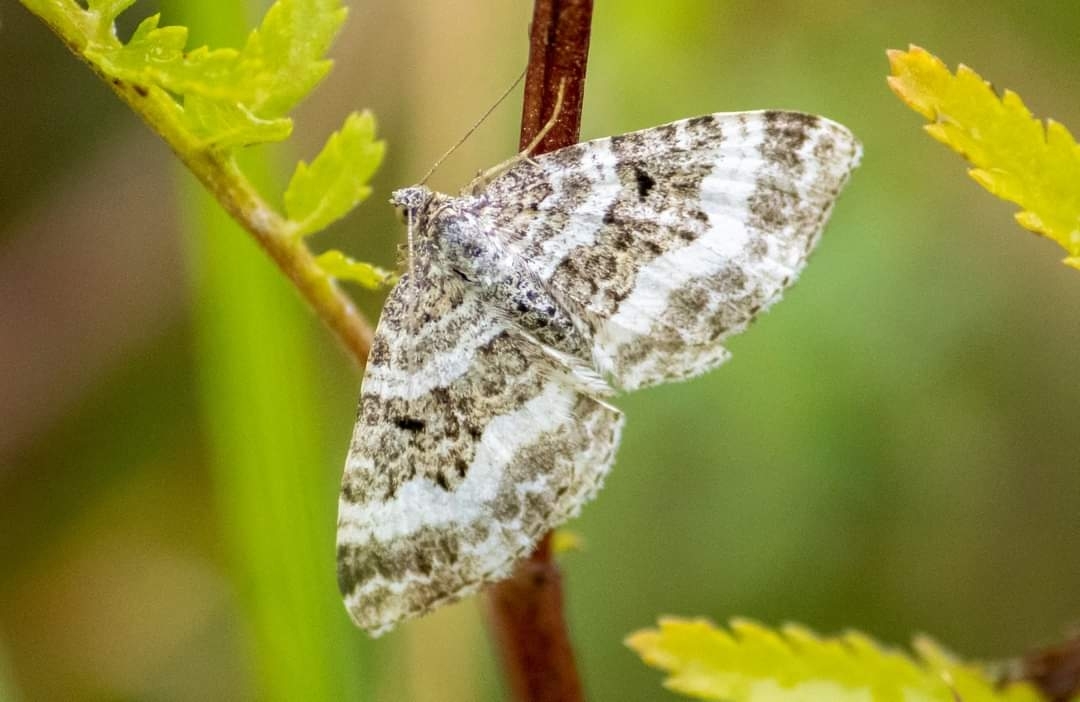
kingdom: Animalia
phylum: Arthropoda
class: Insecta
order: Lepidoptera
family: Geometridae
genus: Epirrhoe
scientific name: Epirrhoe alternata
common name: Common carpet
